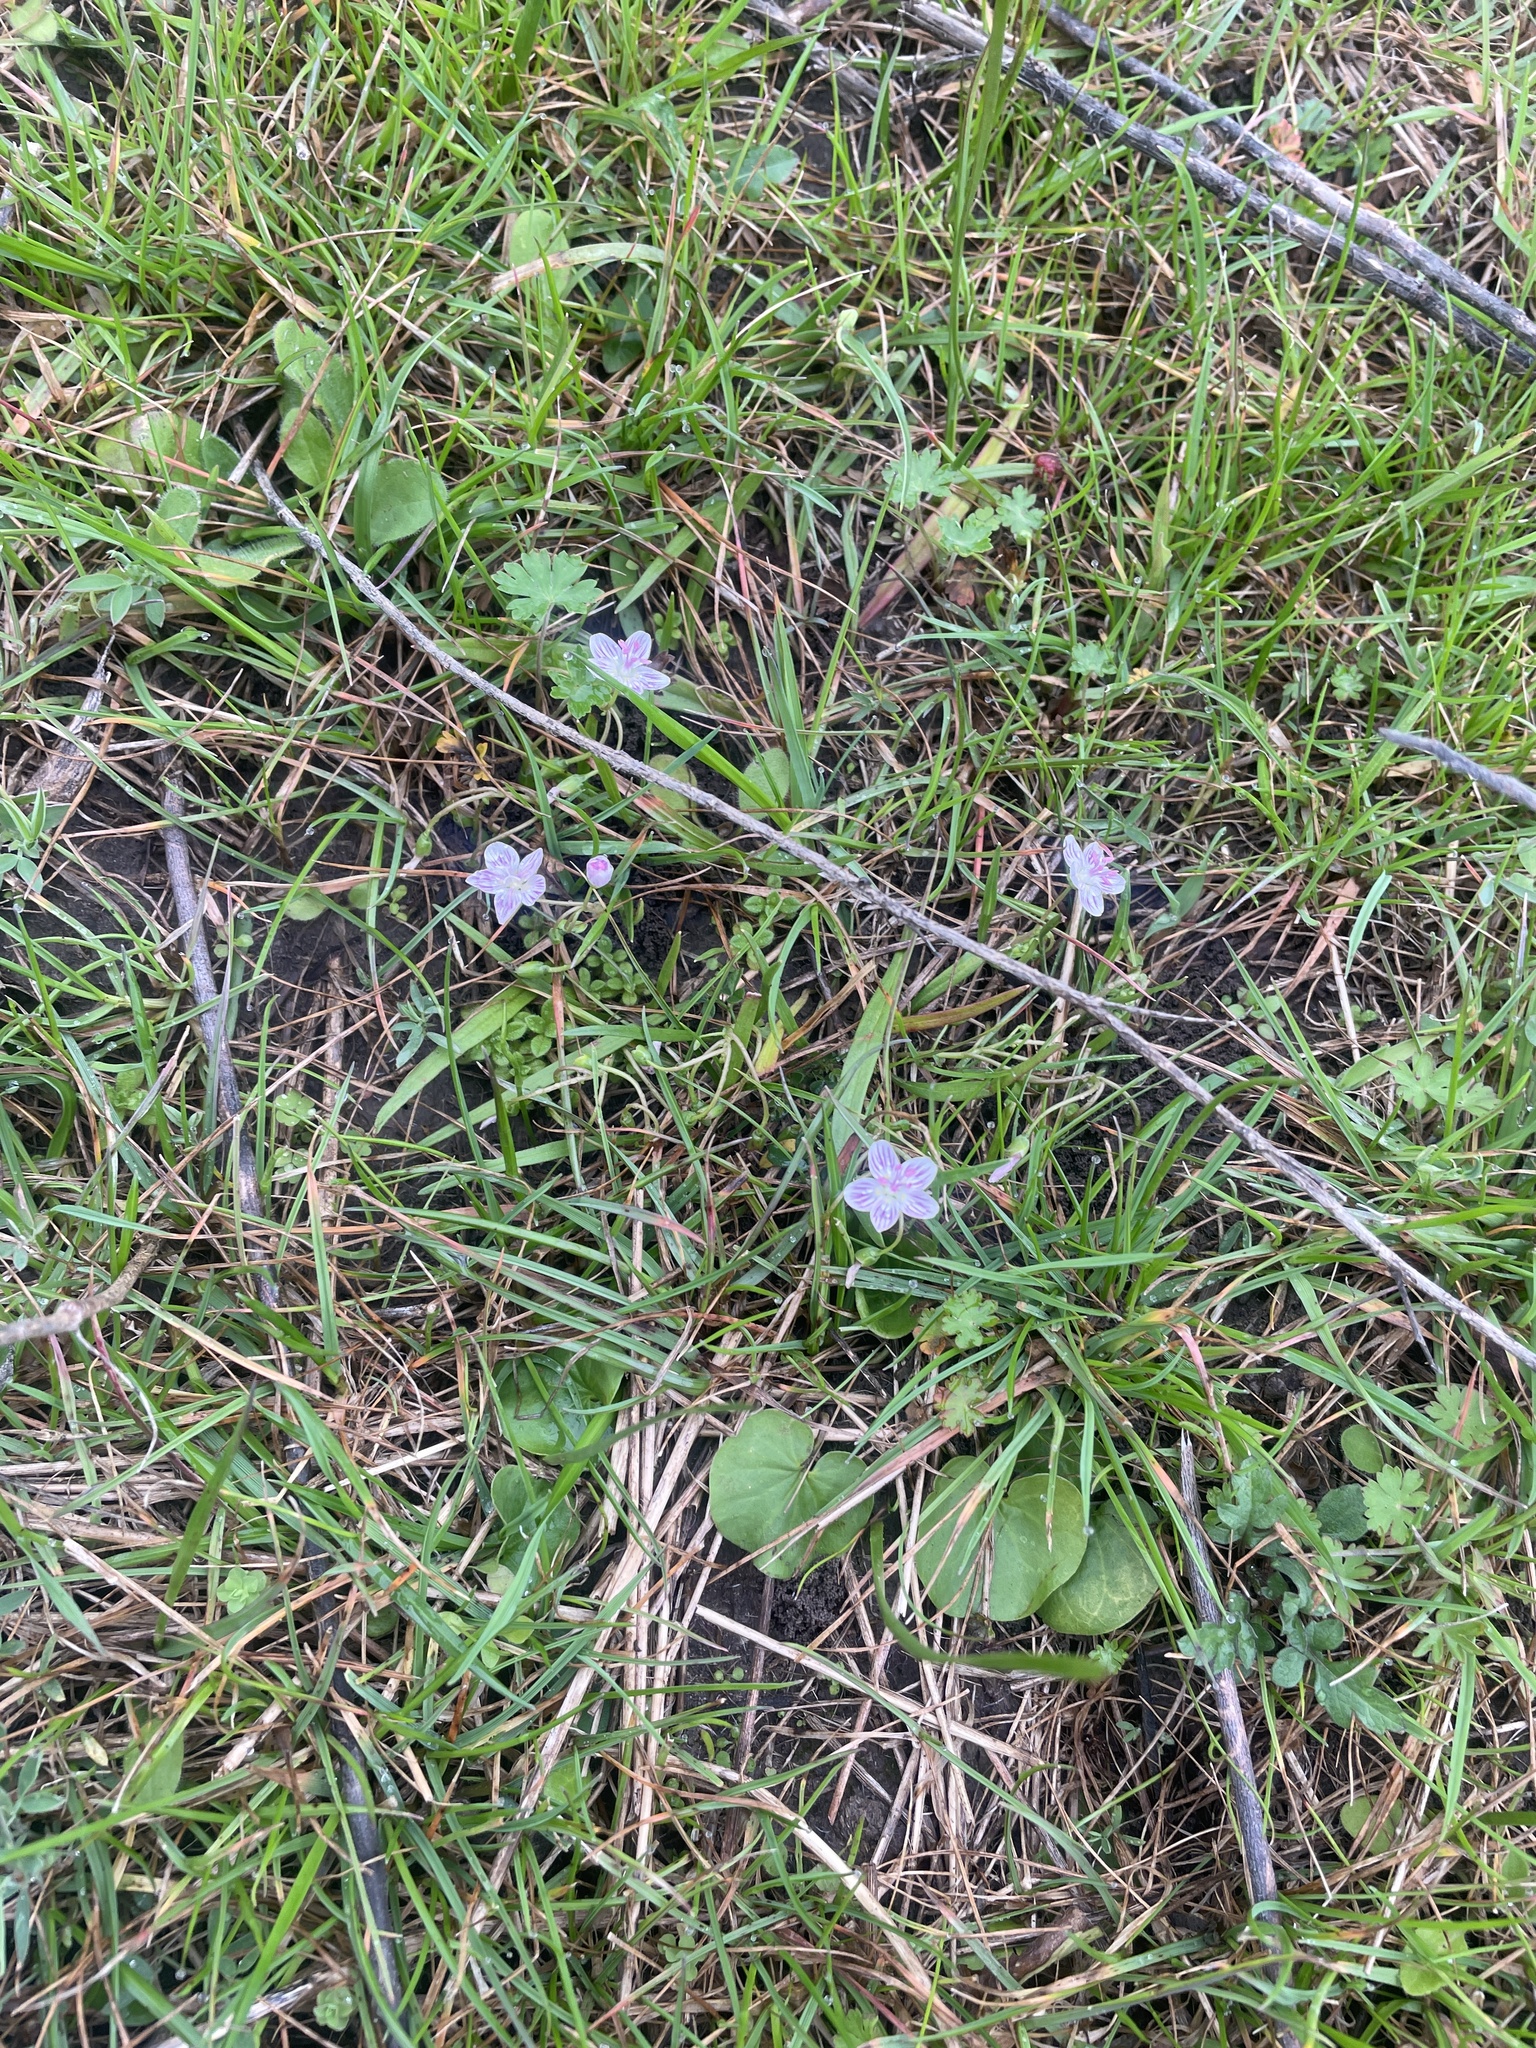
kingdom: Plantae
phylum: Tracheophyta
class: Magnoliopsida
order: Caryophyllales
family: Montiaceae
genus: Claytonia
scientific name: Claytonia virginica
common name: Virginia springbeauty
